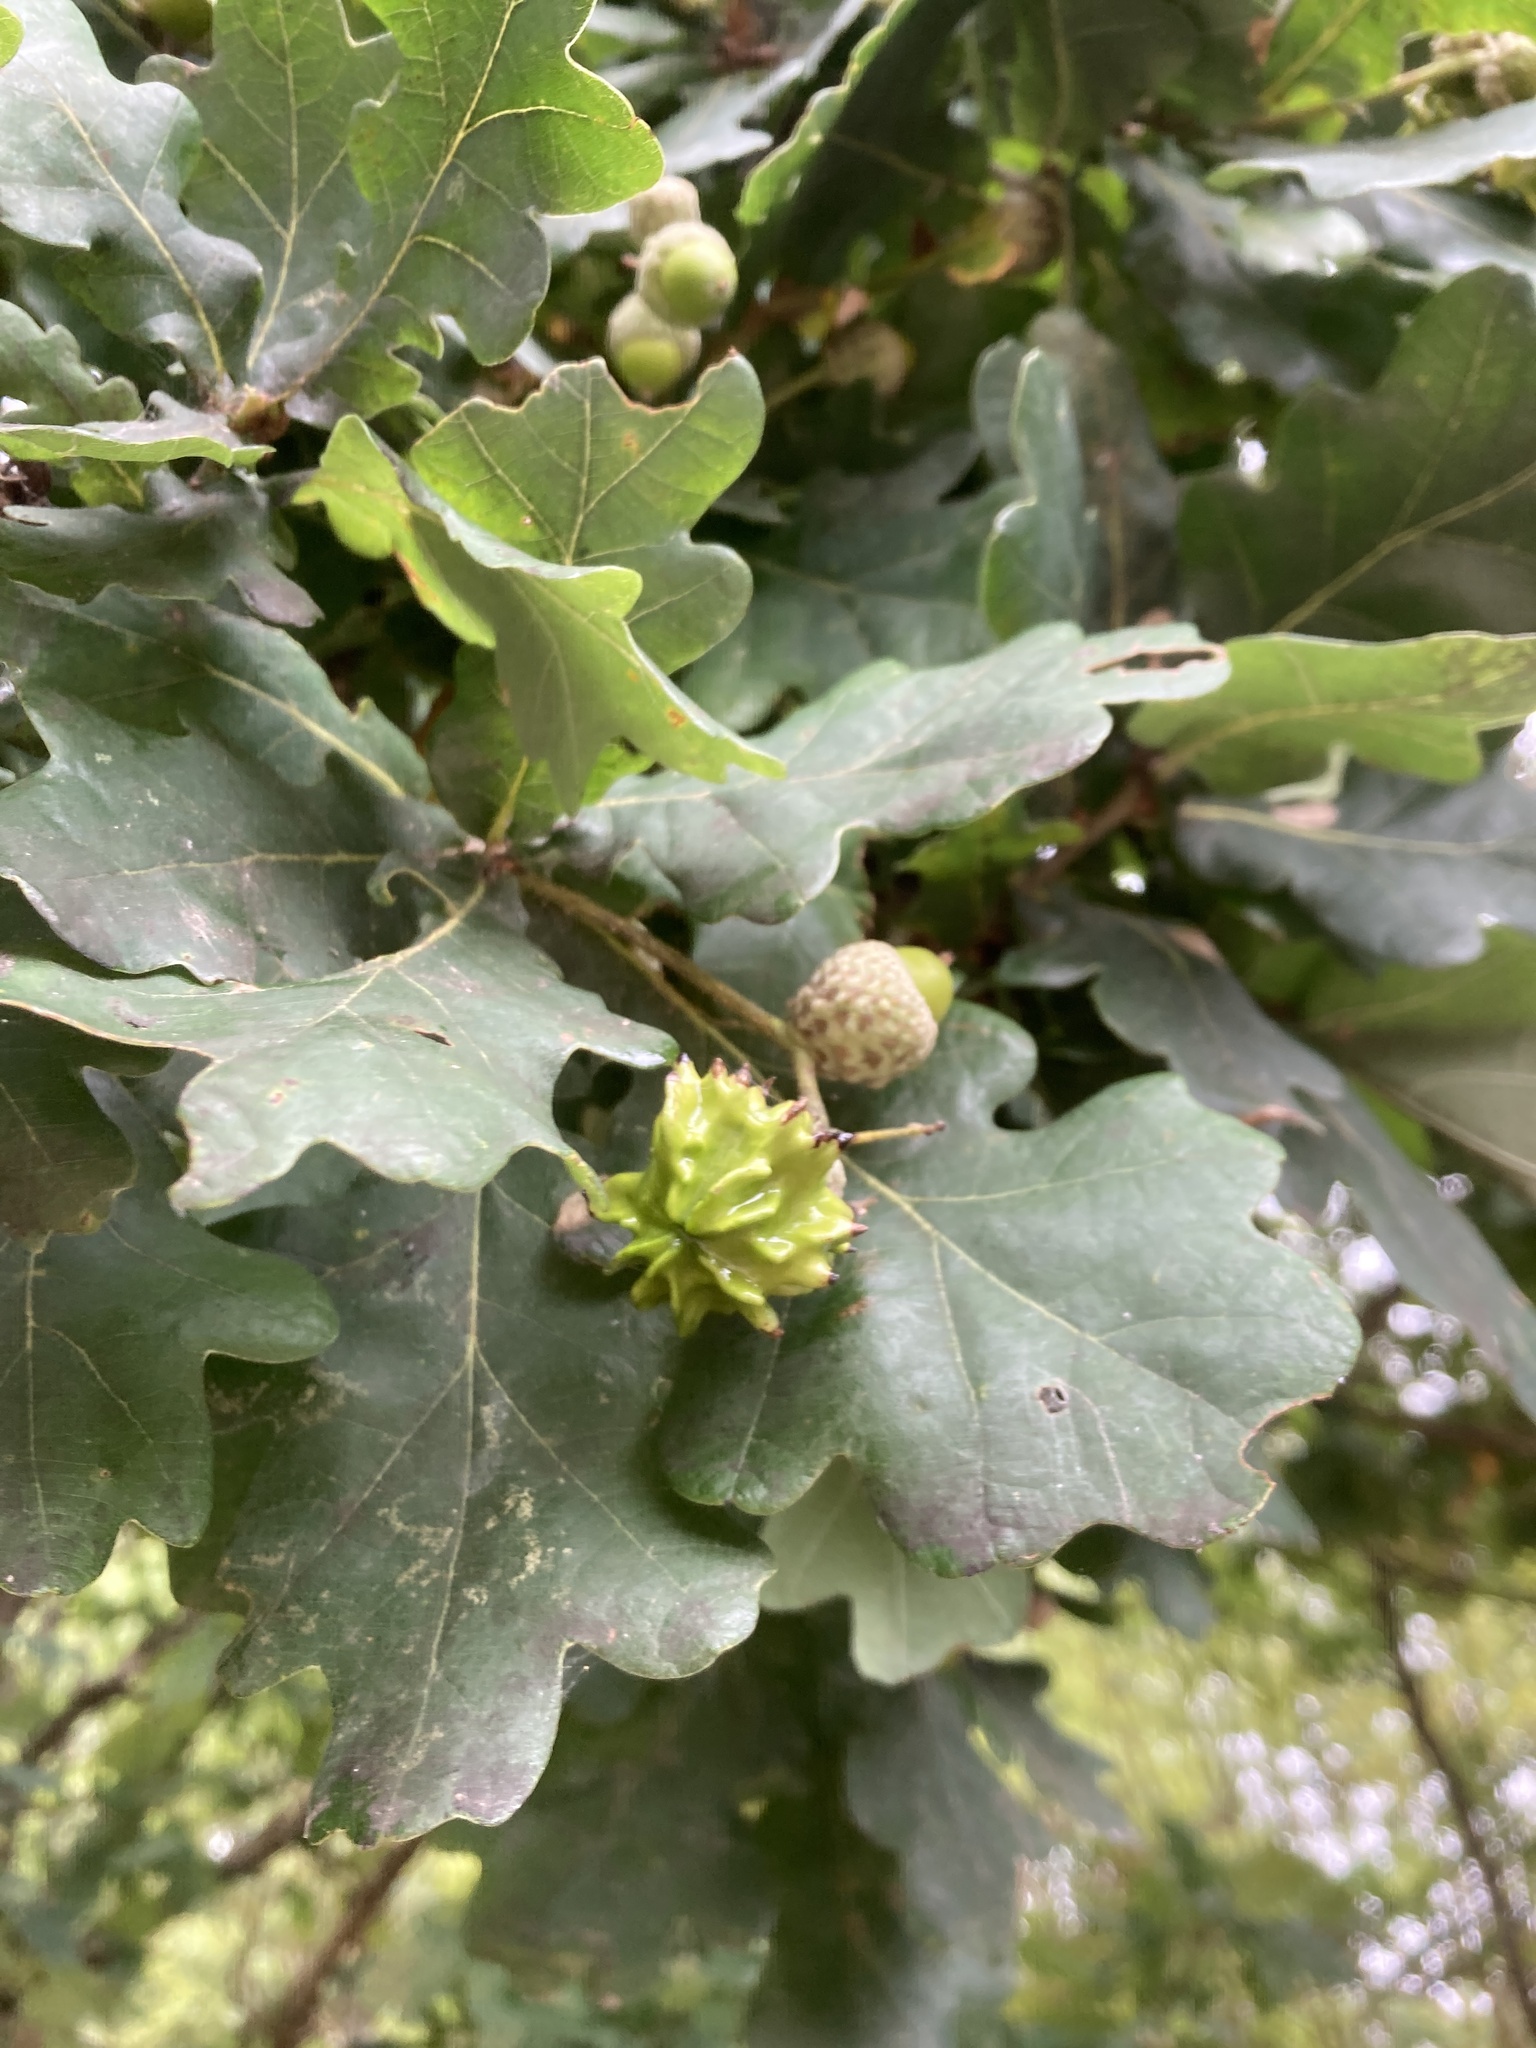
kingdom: Animalia
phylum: Arthropoda
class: Insecta
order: Hymenoptera
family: Cynipidae
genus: Andricus
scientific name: Andricus quercuscalicis
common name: Knopper gall
